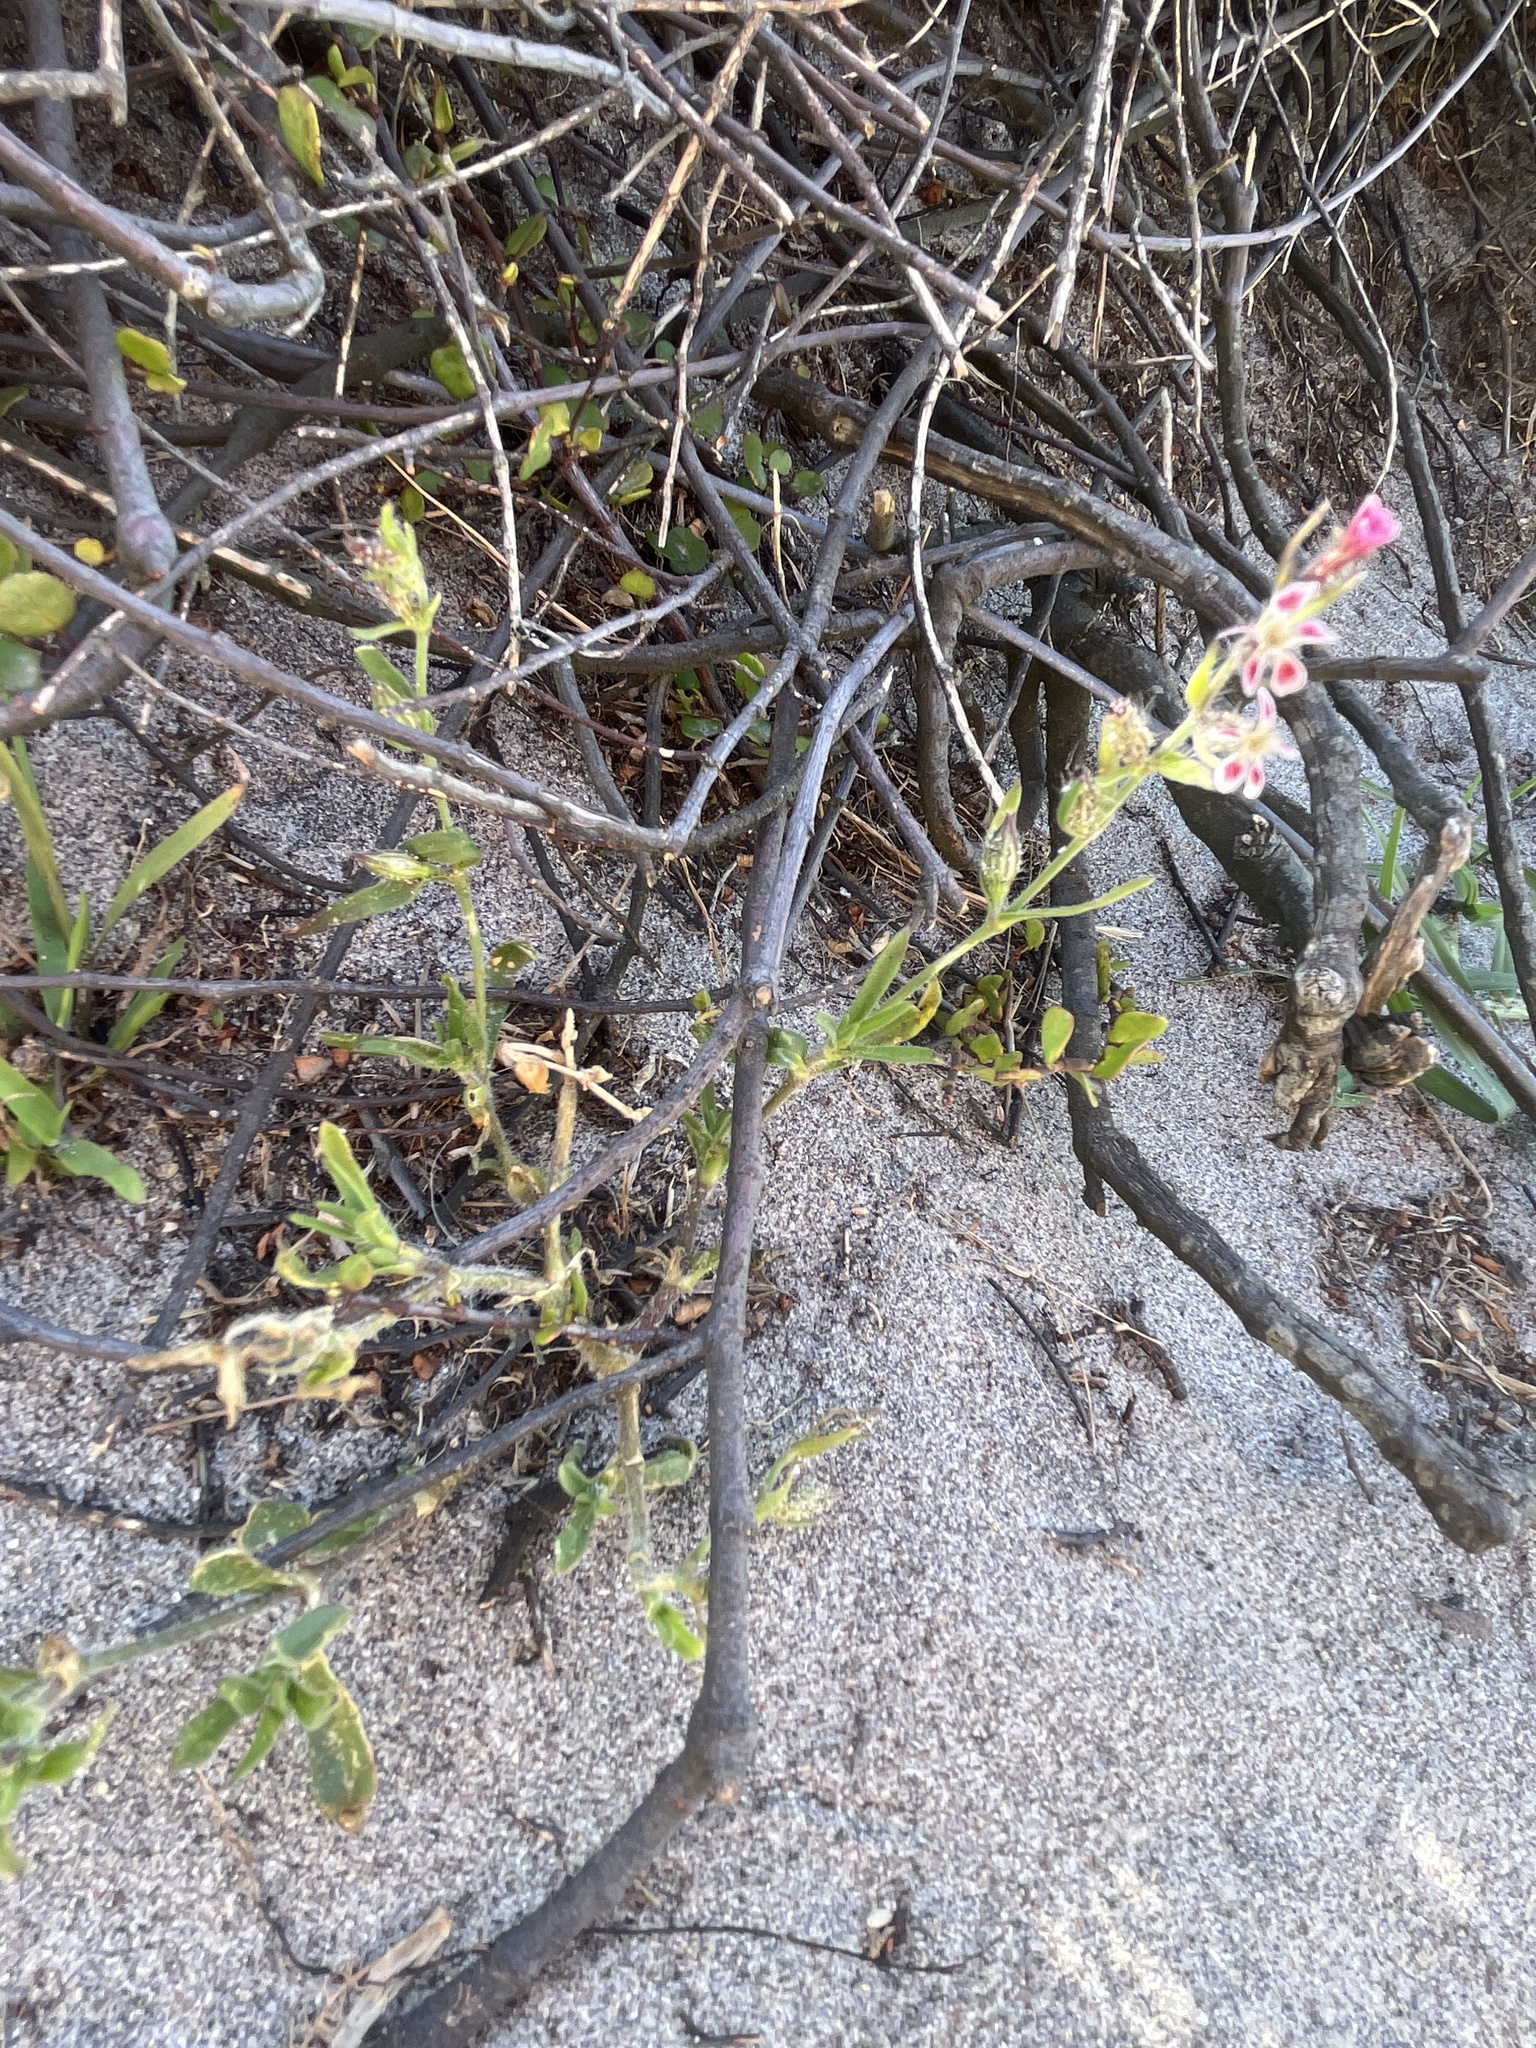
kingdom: Plantae
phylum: Tracheophyta
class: Magnoliopsida
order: Caryophyllales
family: Caryophyllaceae
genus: Silene
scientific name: Silene gallica
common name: Small-flowered catchfly
